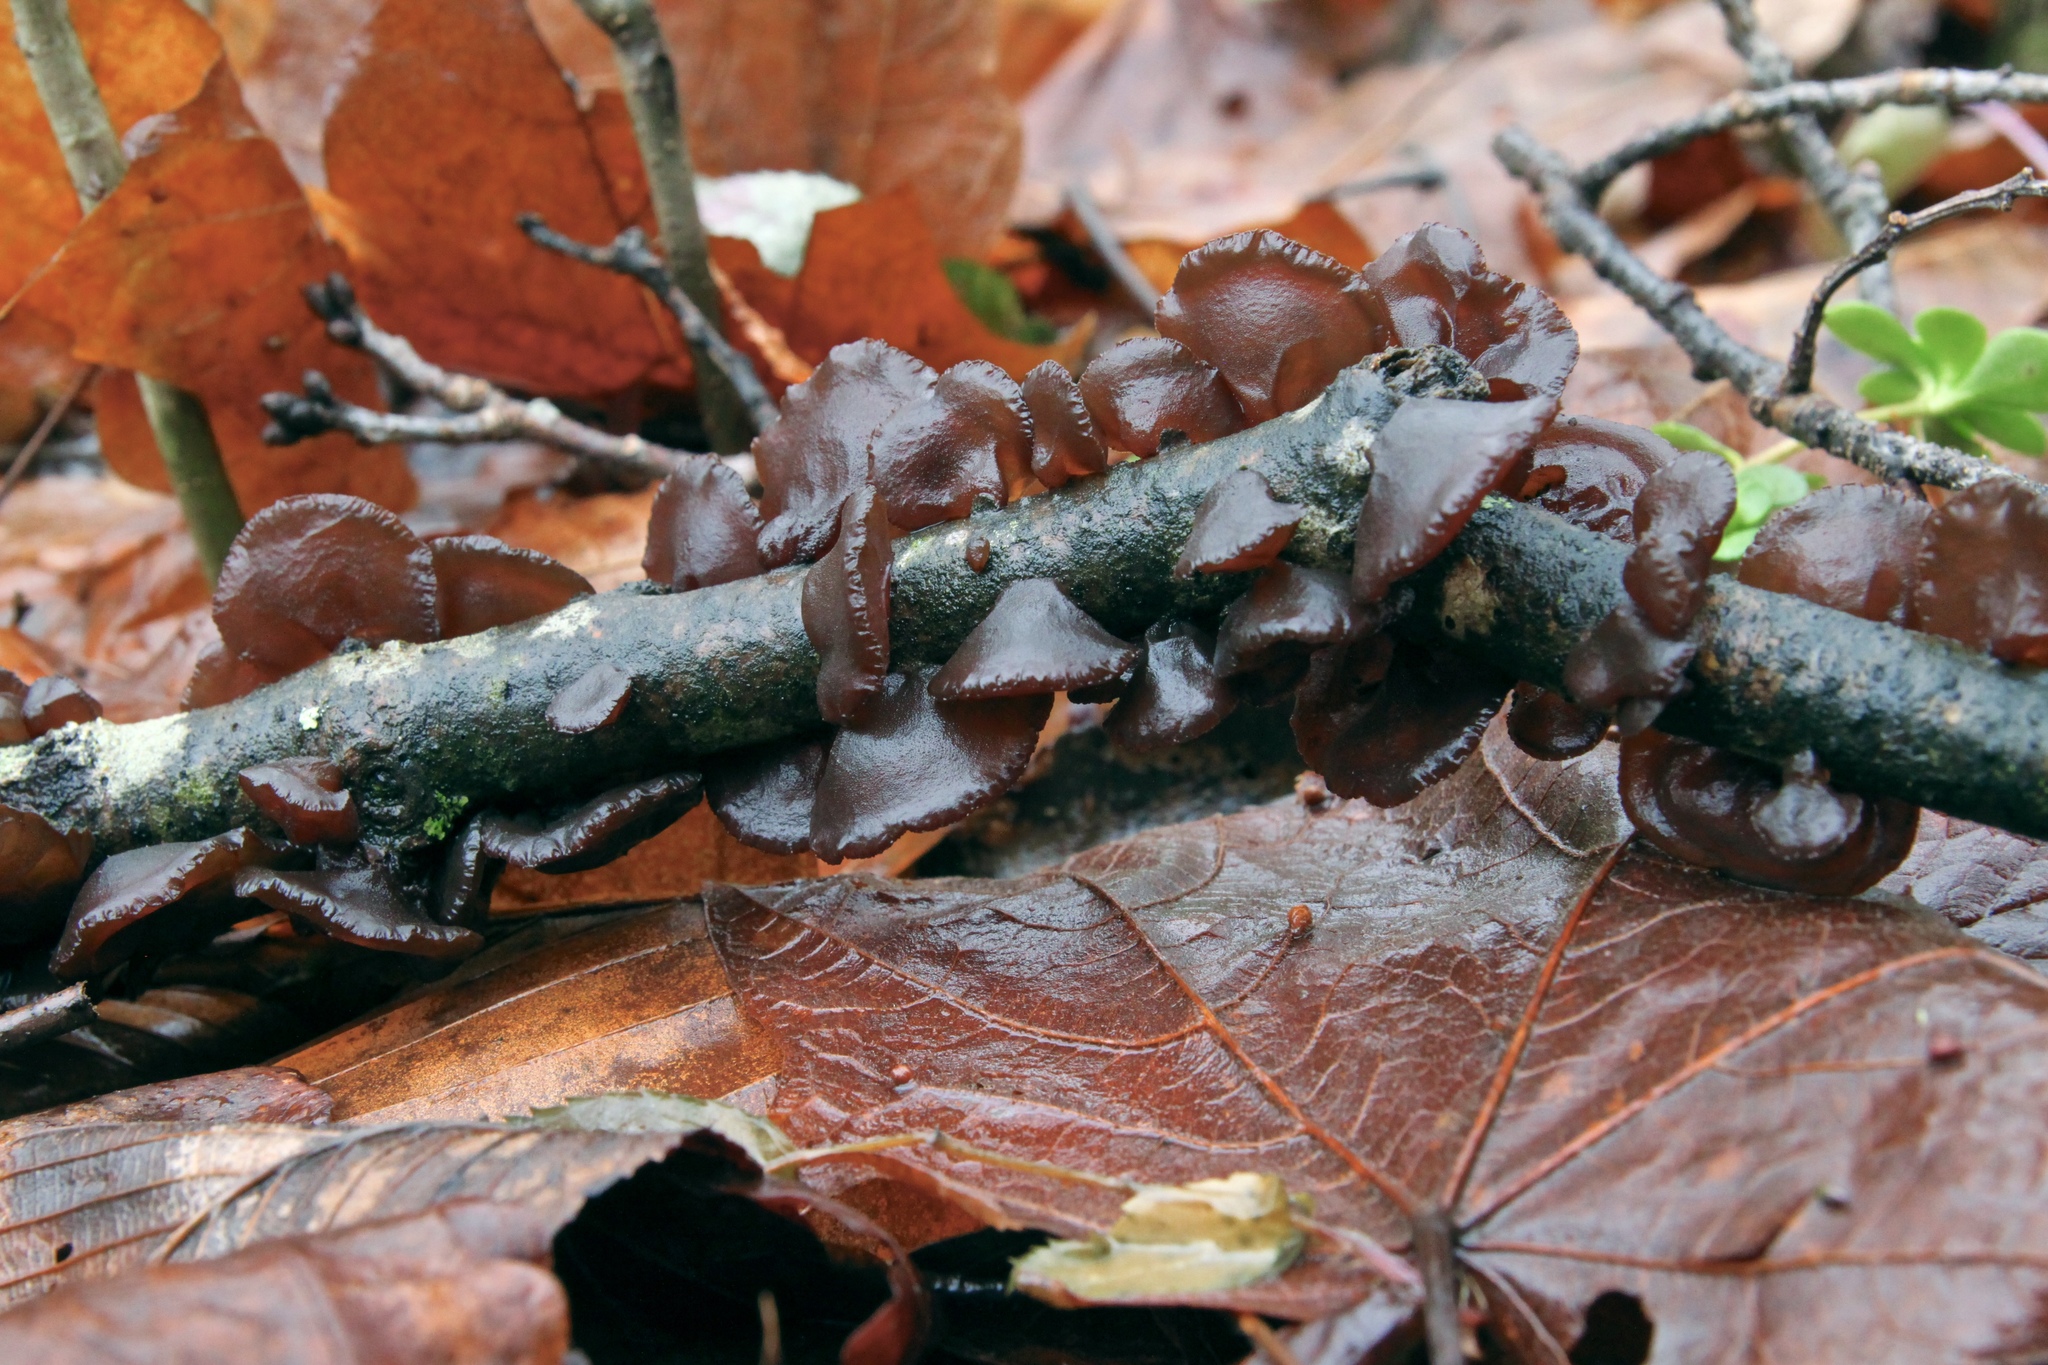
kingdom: Fungi
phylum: Basidiomycota
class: Agaricomycetes
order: Auriculariales
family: Auriculariaceae
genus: Exidia
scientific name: Exidia
